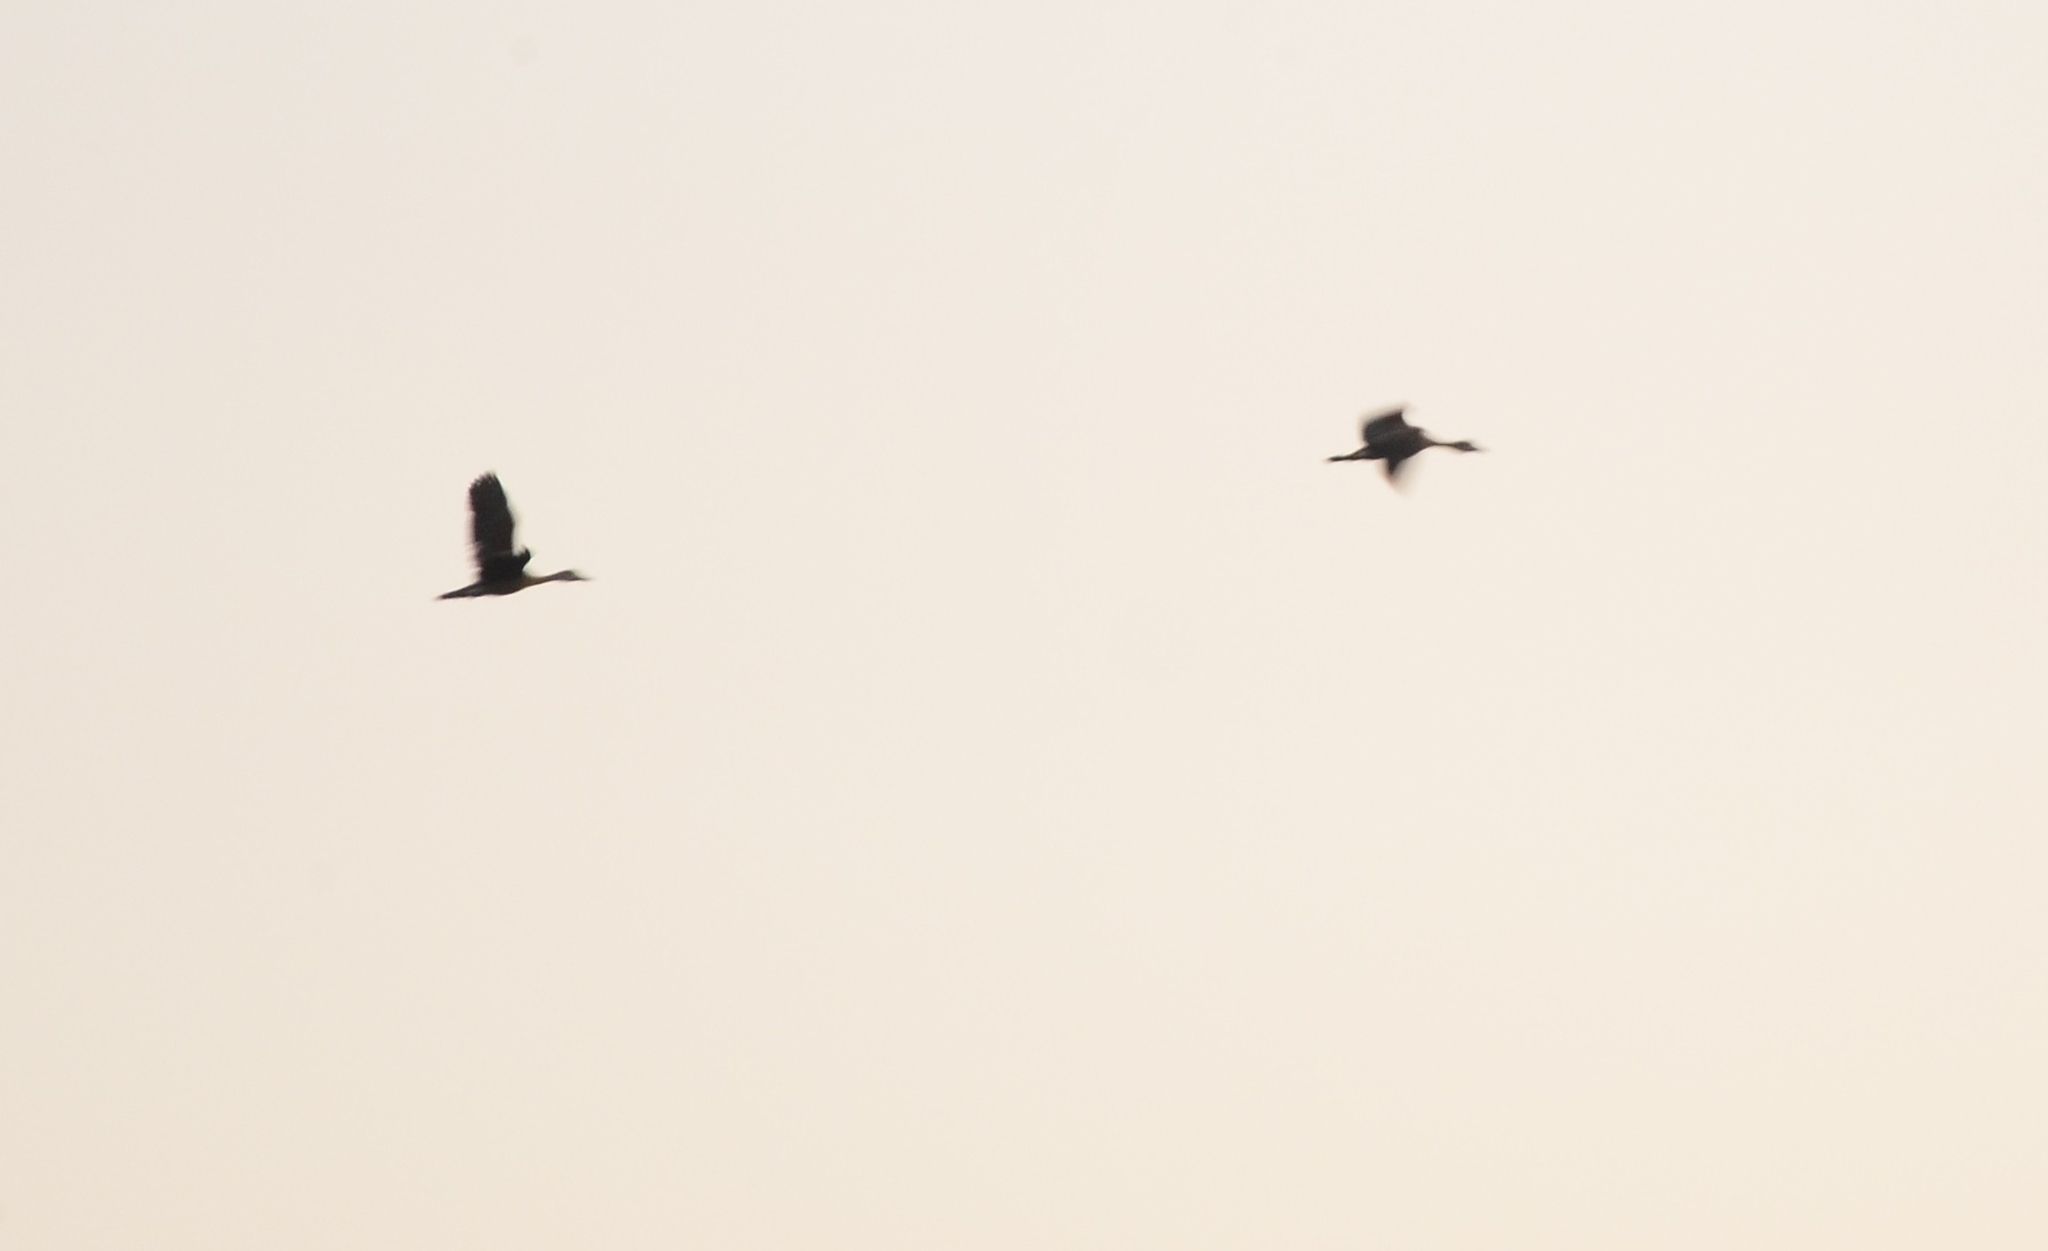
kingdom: Animalia
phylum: Chordata
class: Aves
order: Anseriformes
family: Anatidae
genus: Dendrocygna
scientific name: Dendrocygna javanica
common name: Lesser whistling-duck
